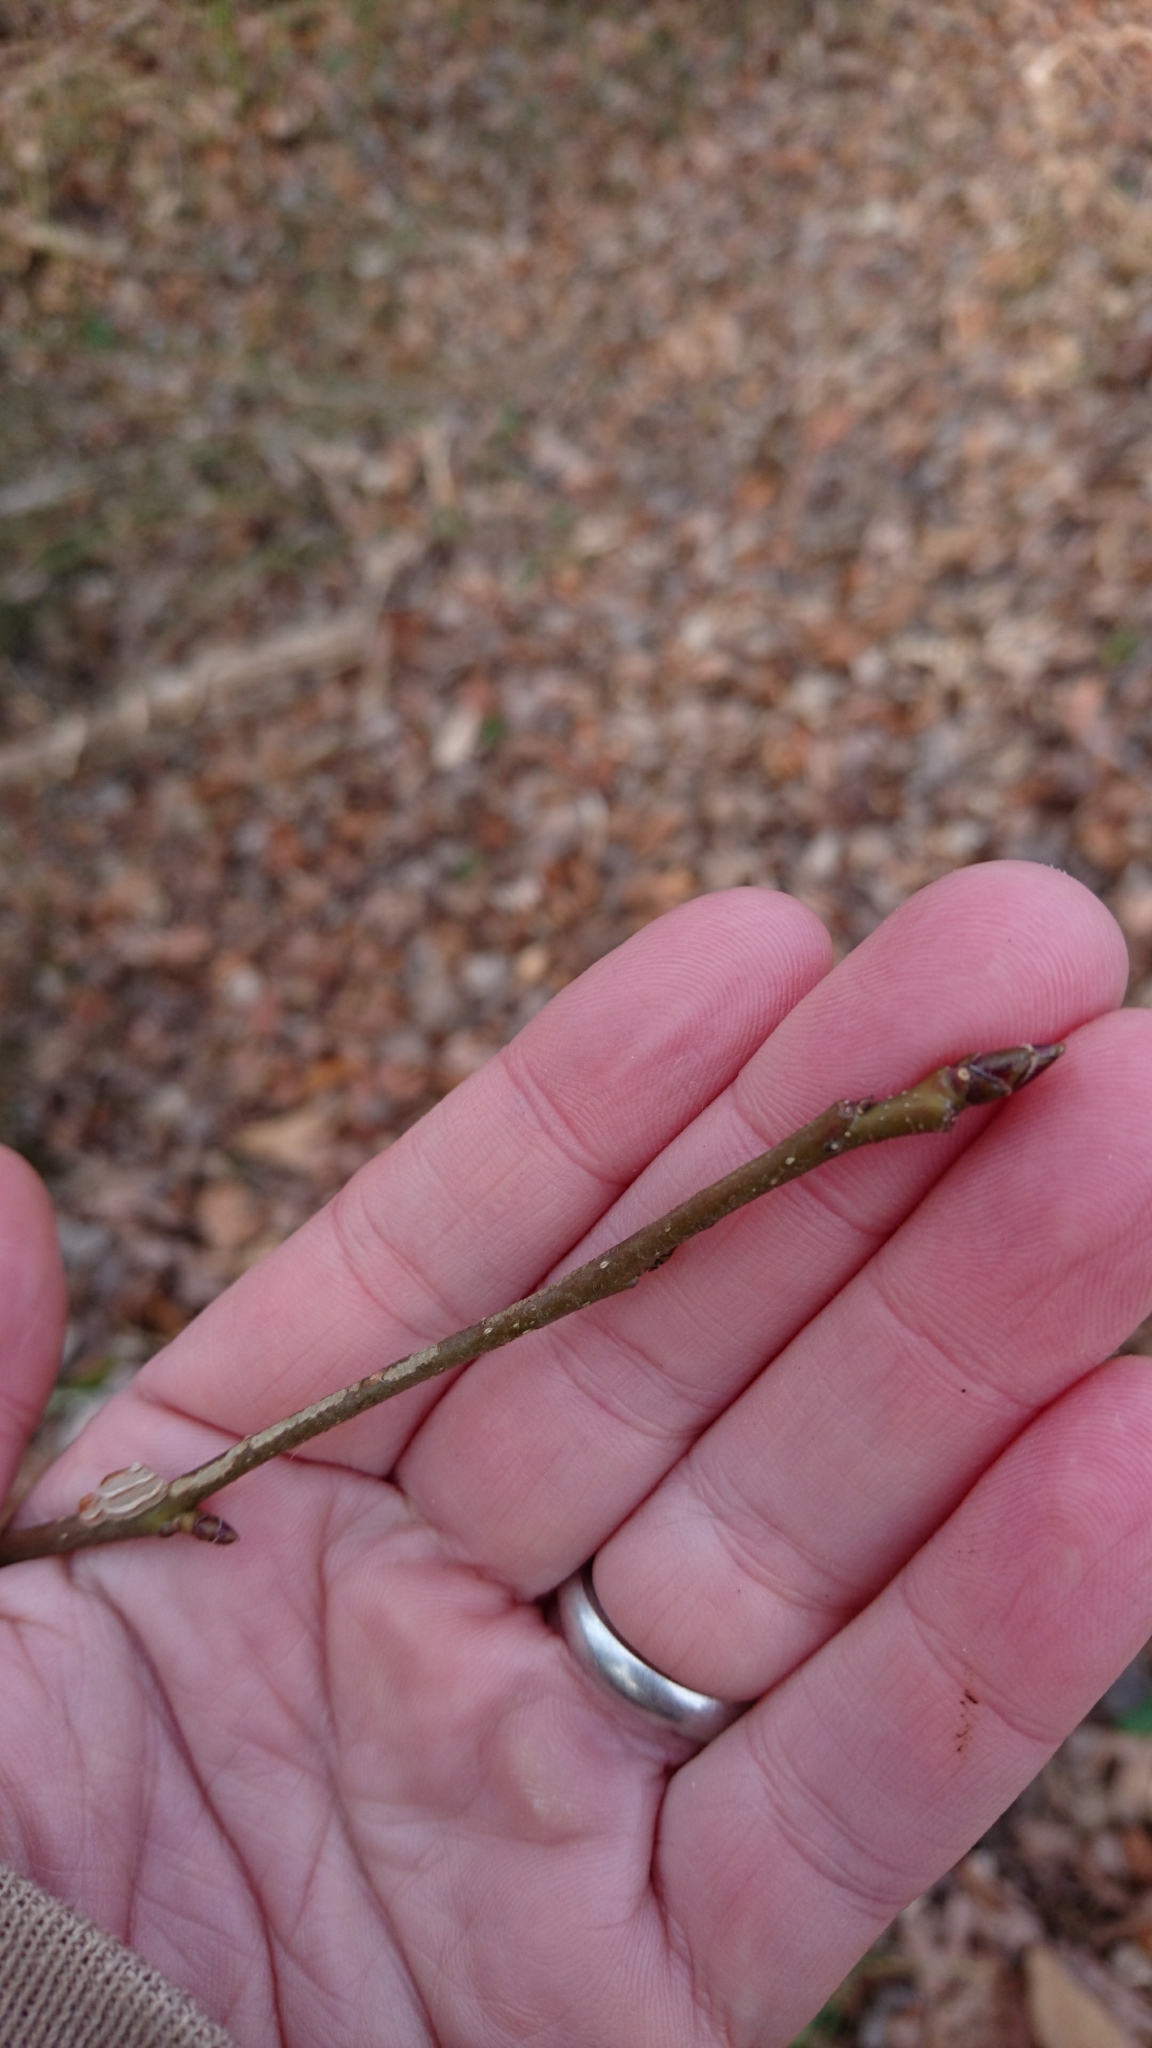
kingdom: Plantae
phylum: Tracheophyta
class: Magnoliopsida
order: Saxifragales
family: Altingiaceae
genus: Liquidambar
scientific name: Liquidambar styraciflua
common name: Sweet gum
